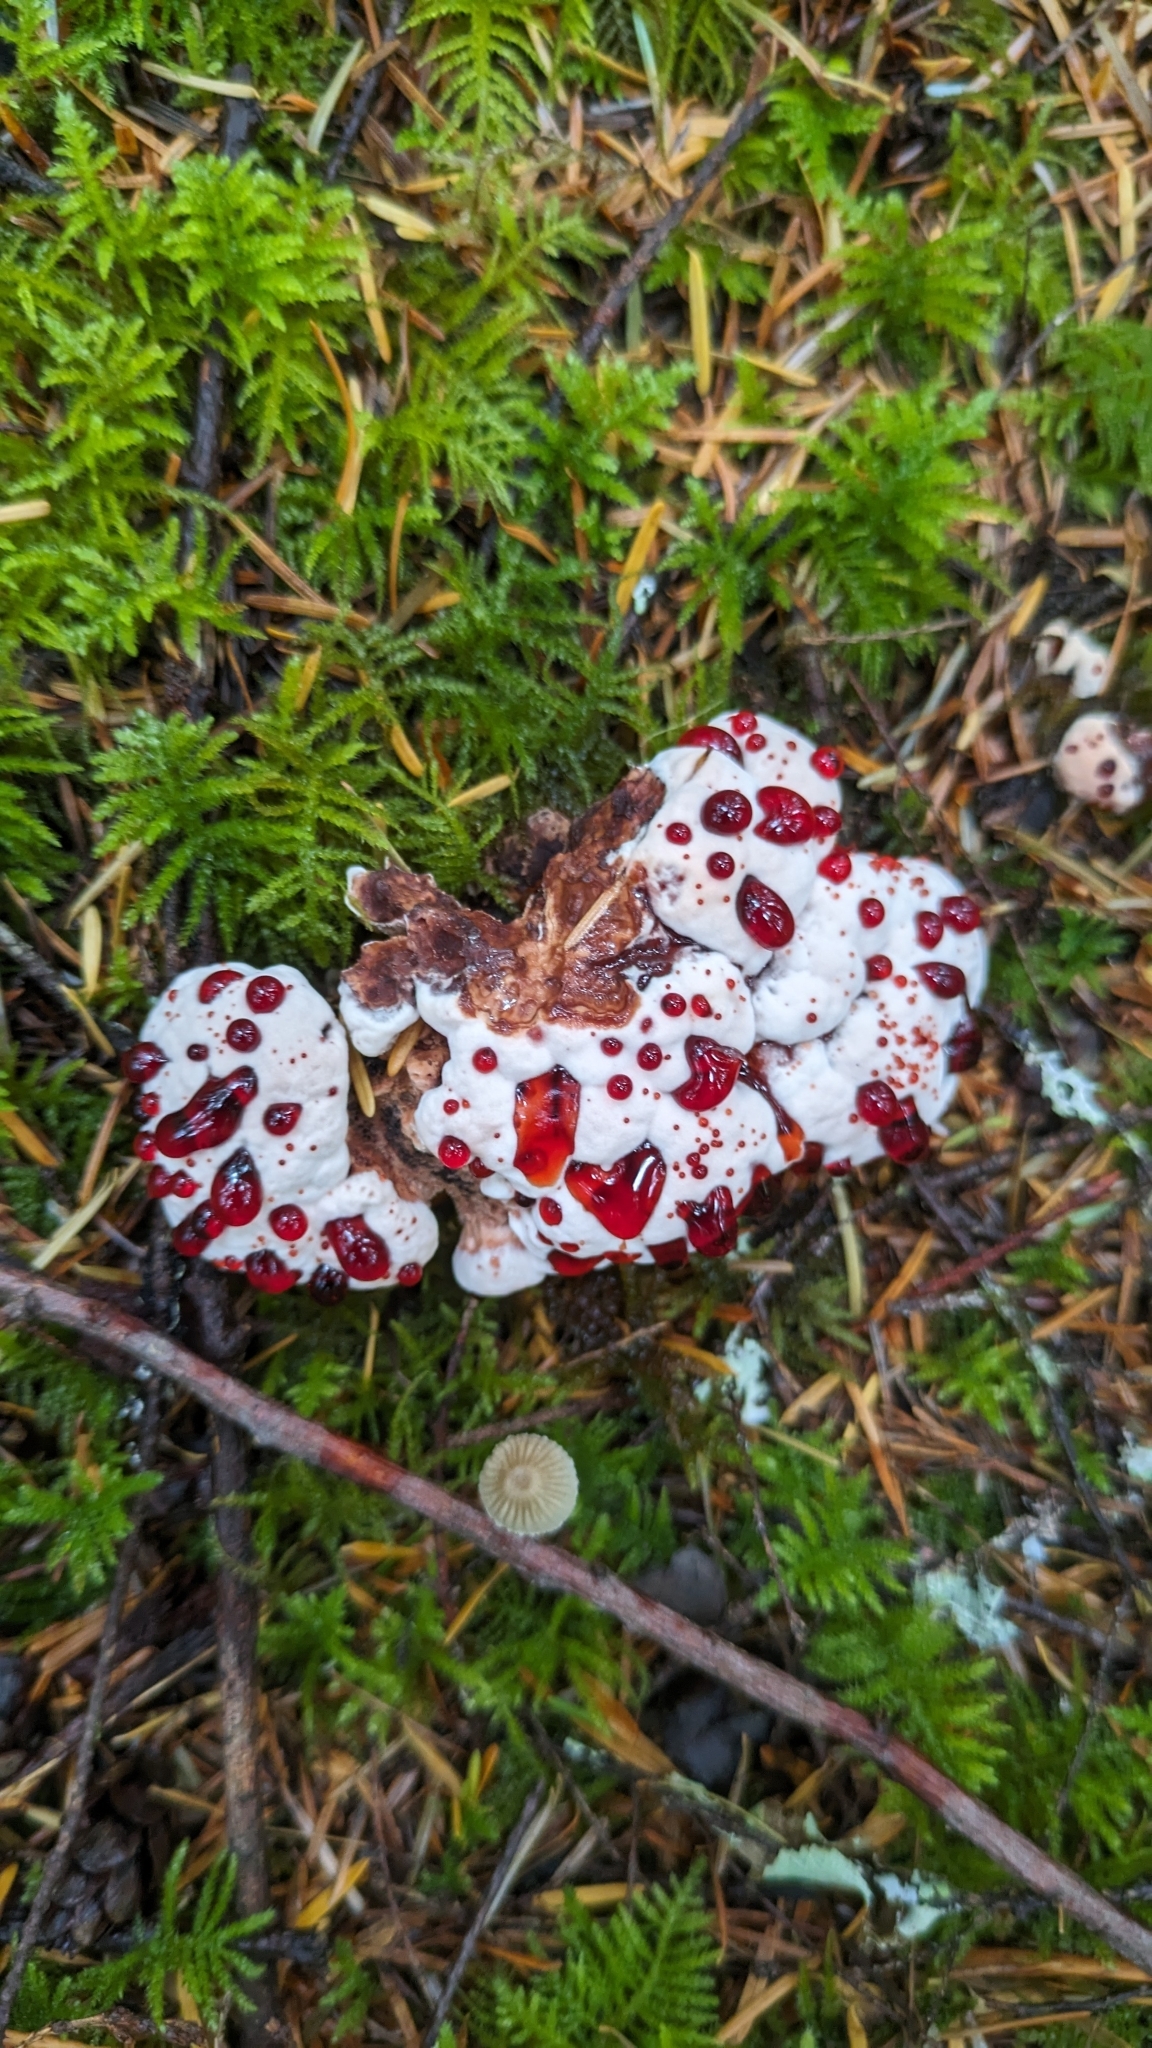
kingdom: Fungi
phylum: Basidiomycota
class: Agaricomycetes
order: Thelephorales
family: Bankeraceae
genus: Hydnellum
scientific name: Hydnellum peckii
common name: Devil's tooth
